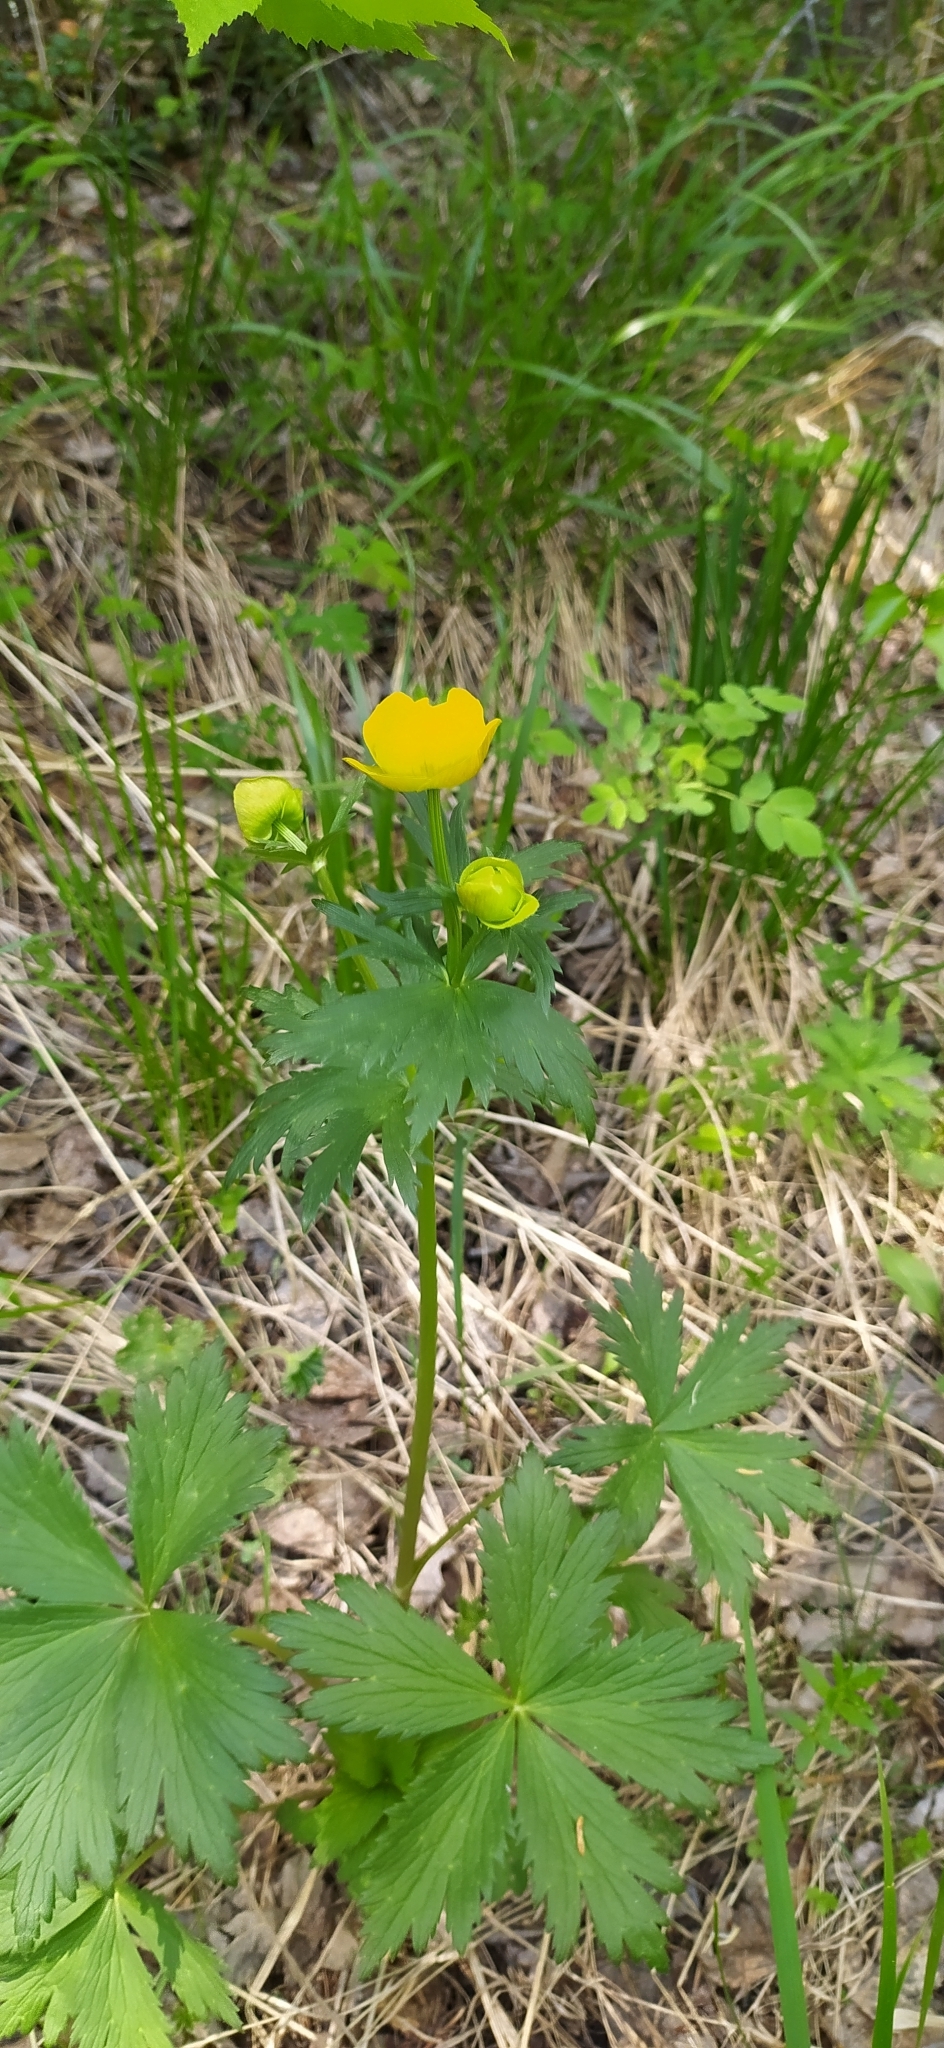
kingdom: Plantae
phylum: Tracheophyta
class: Magnoliopsida
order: Ranunculales
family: Ranunculaceae
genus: Trollius
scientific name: Trollius europaeus
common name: European globeflower
